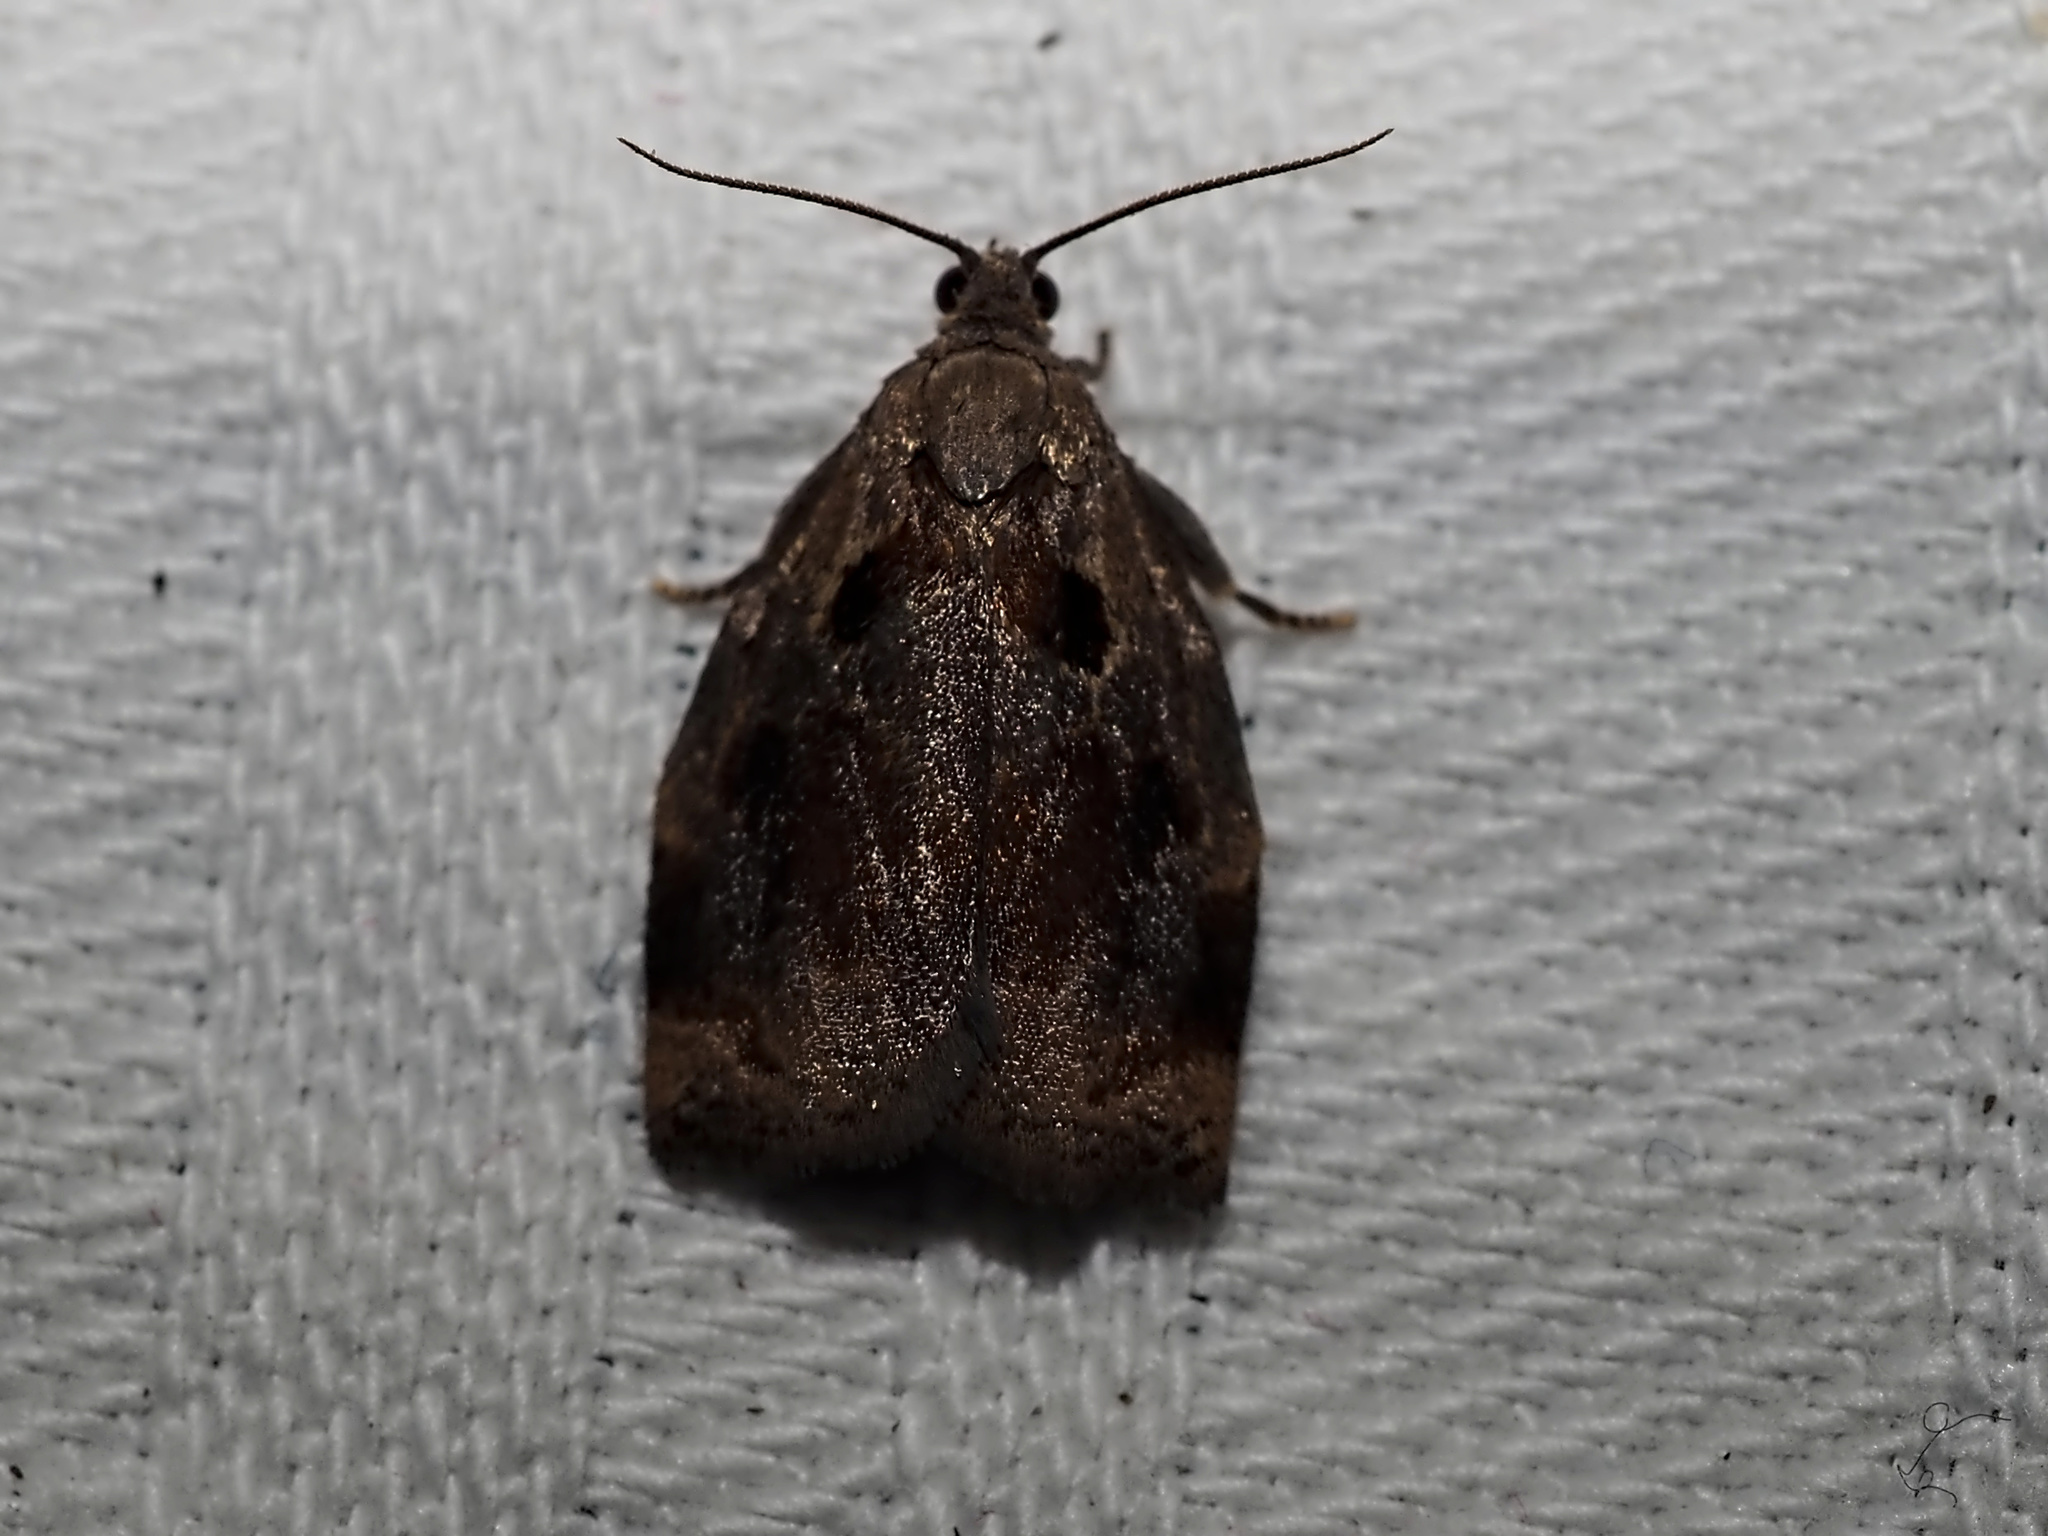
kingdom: Animalia
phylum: Arthropoda
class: Insecta
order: Lepidoptera
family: Tortricidae
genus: Archips
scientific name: Archips crataegana
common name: Brown oak tortrix
